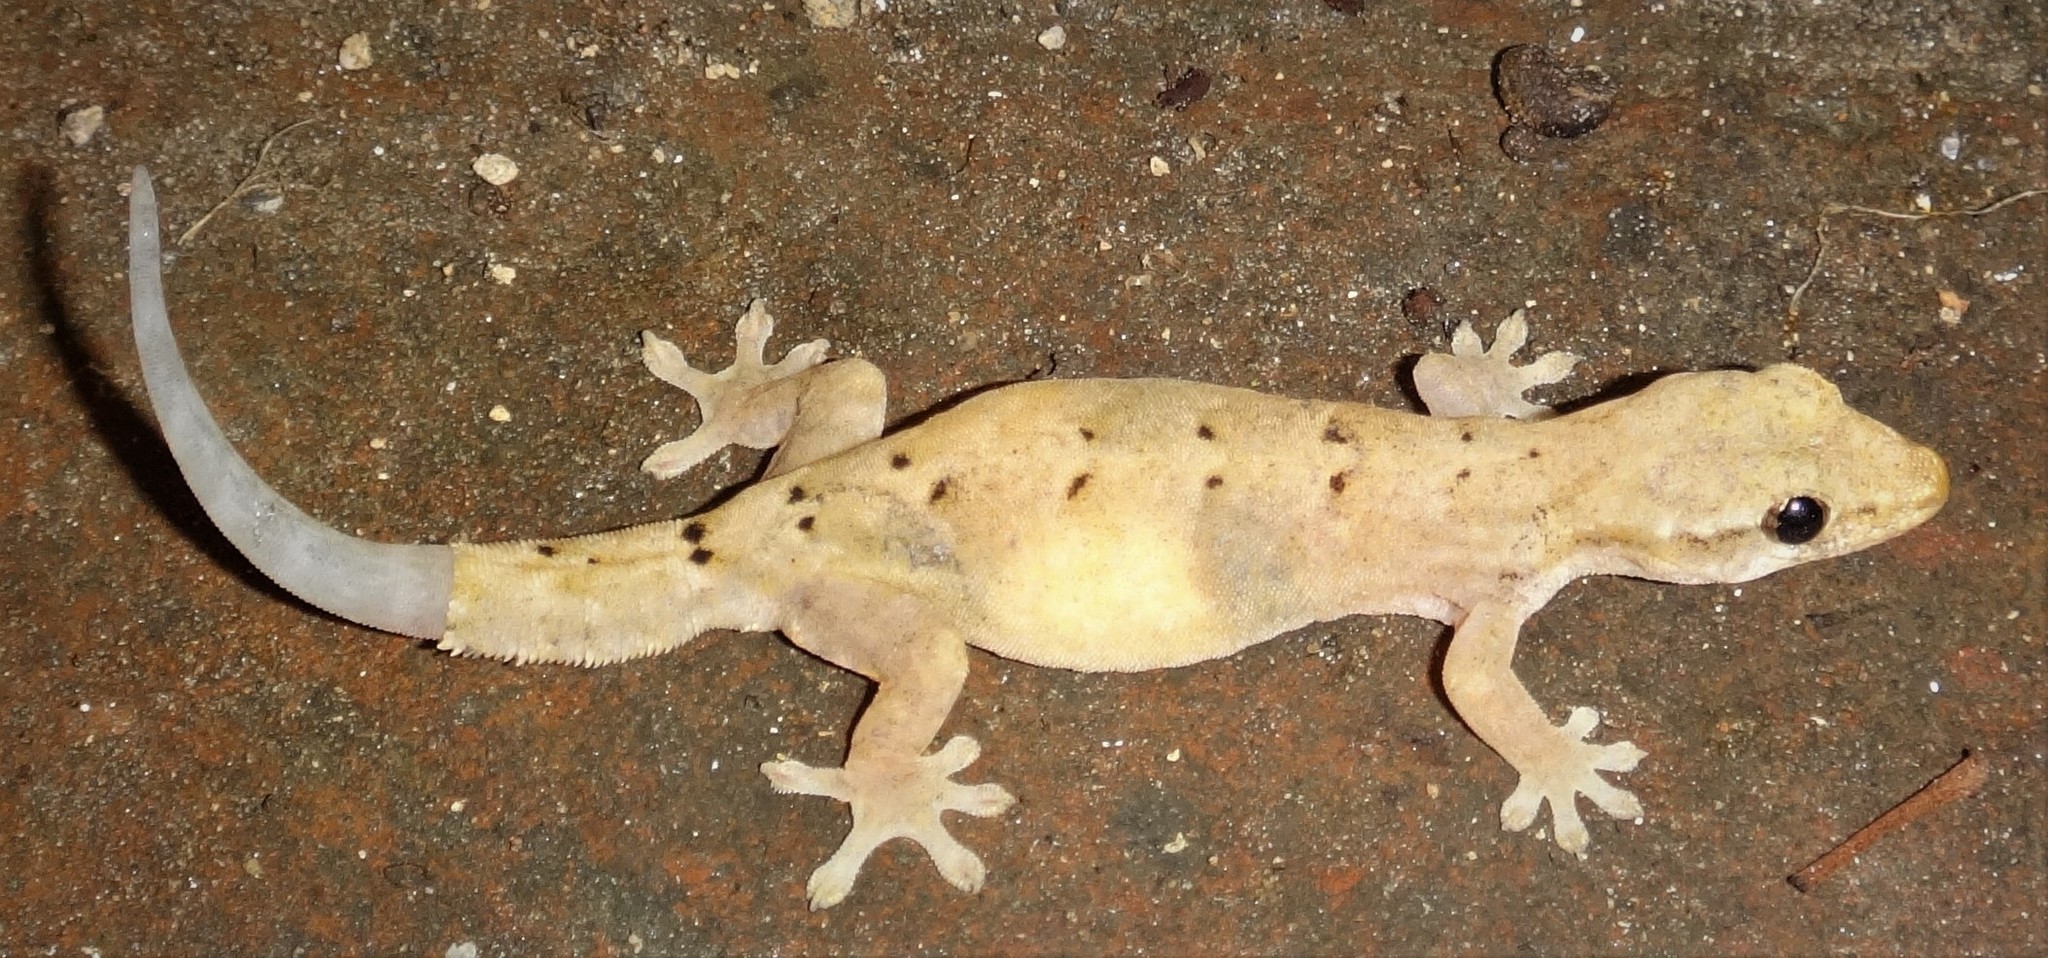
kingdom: Animalia
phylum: Chordata
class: Squamata
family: Gekkonidae
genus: Lepidodactylus
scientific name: Lepidodactylus lugubris
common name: Mourning gecko
